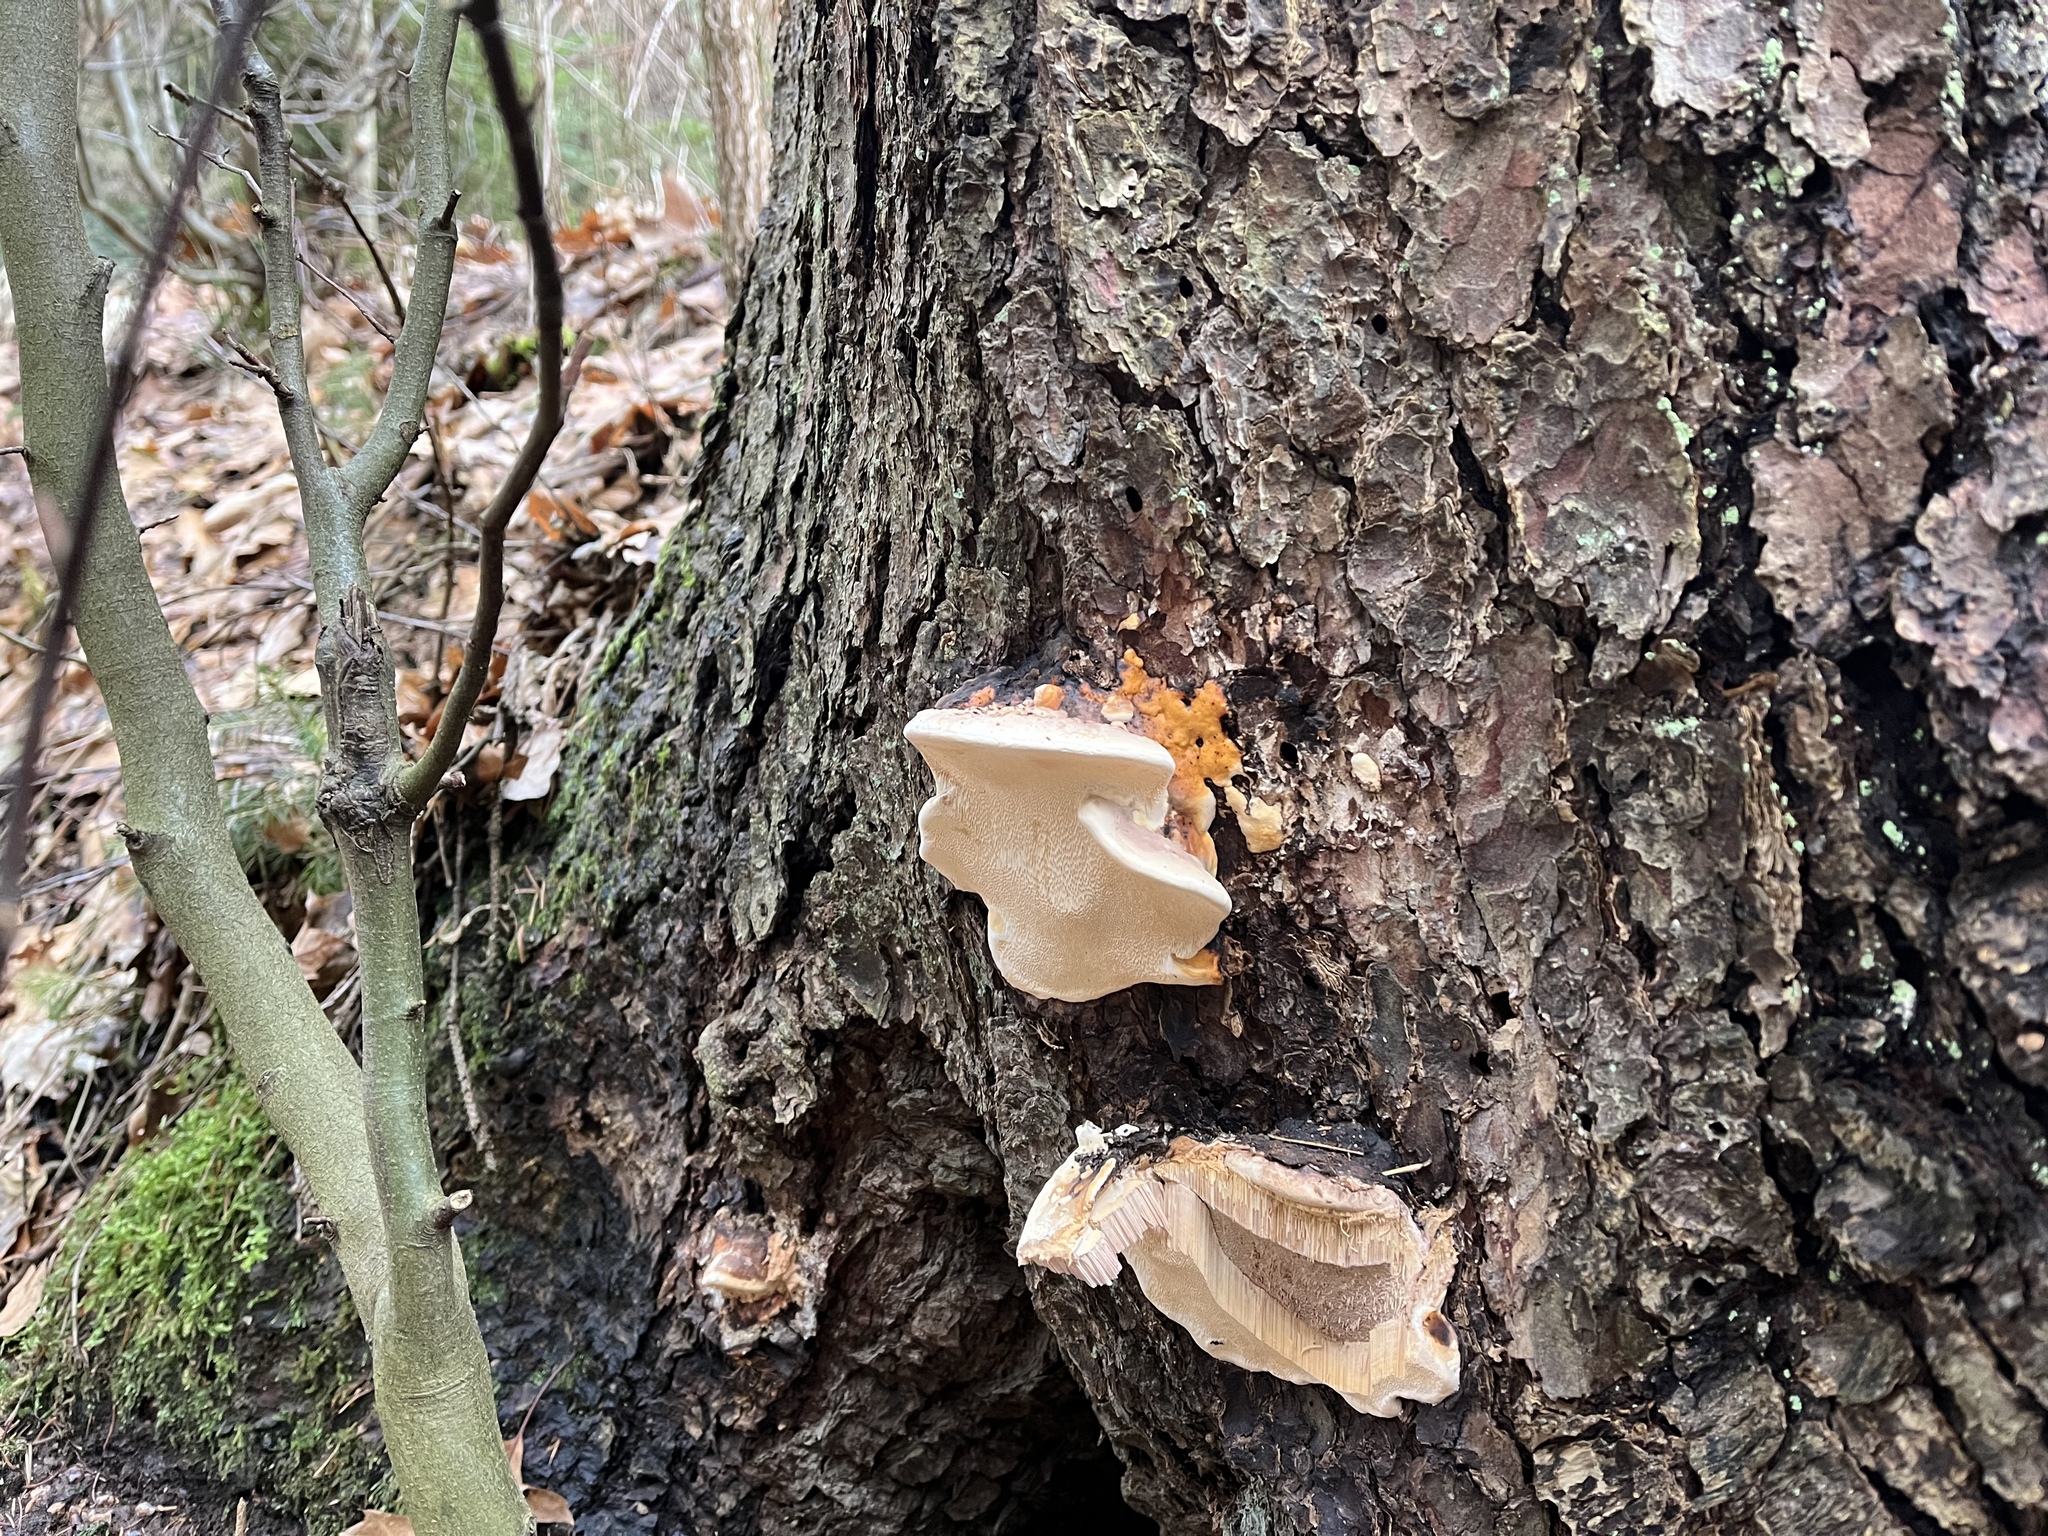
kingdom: Fungi
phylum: Basidiomycota
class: Agaricomycetes
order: Polyporales
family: Fomitopsidaceae
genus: Fomitopsis
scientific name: Fomitopsis pinicola
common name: Red-belted bracket
